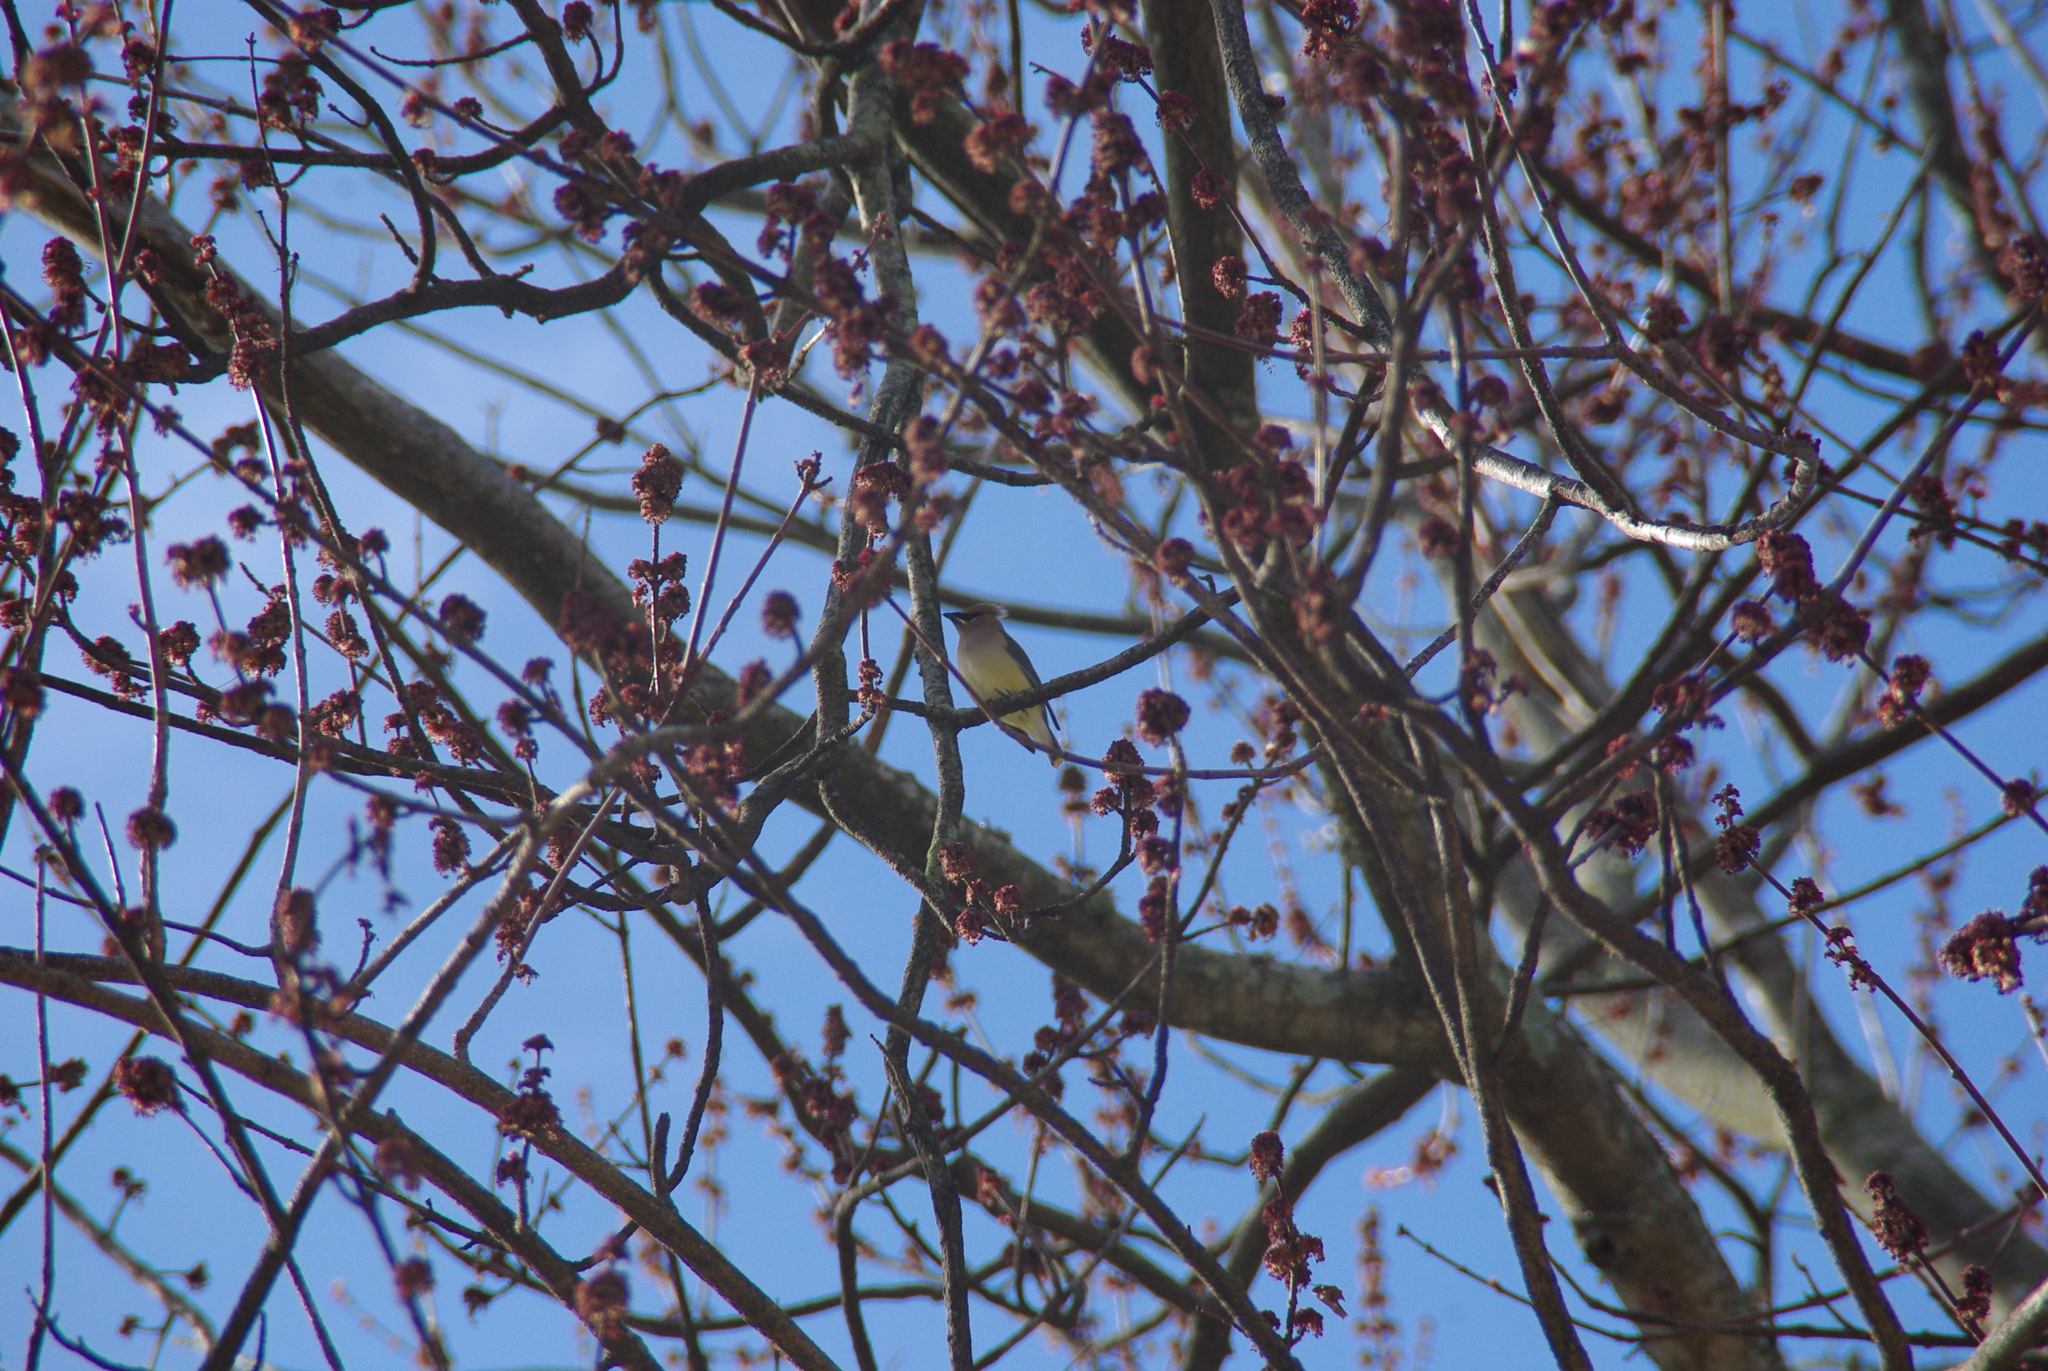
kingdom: Animalia
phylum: Chordata
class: Aves
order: Passeriformes
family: Bombycillidae
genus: Bombycilla
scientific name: Bombycilla cedrorum
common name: Cedar waxwing
